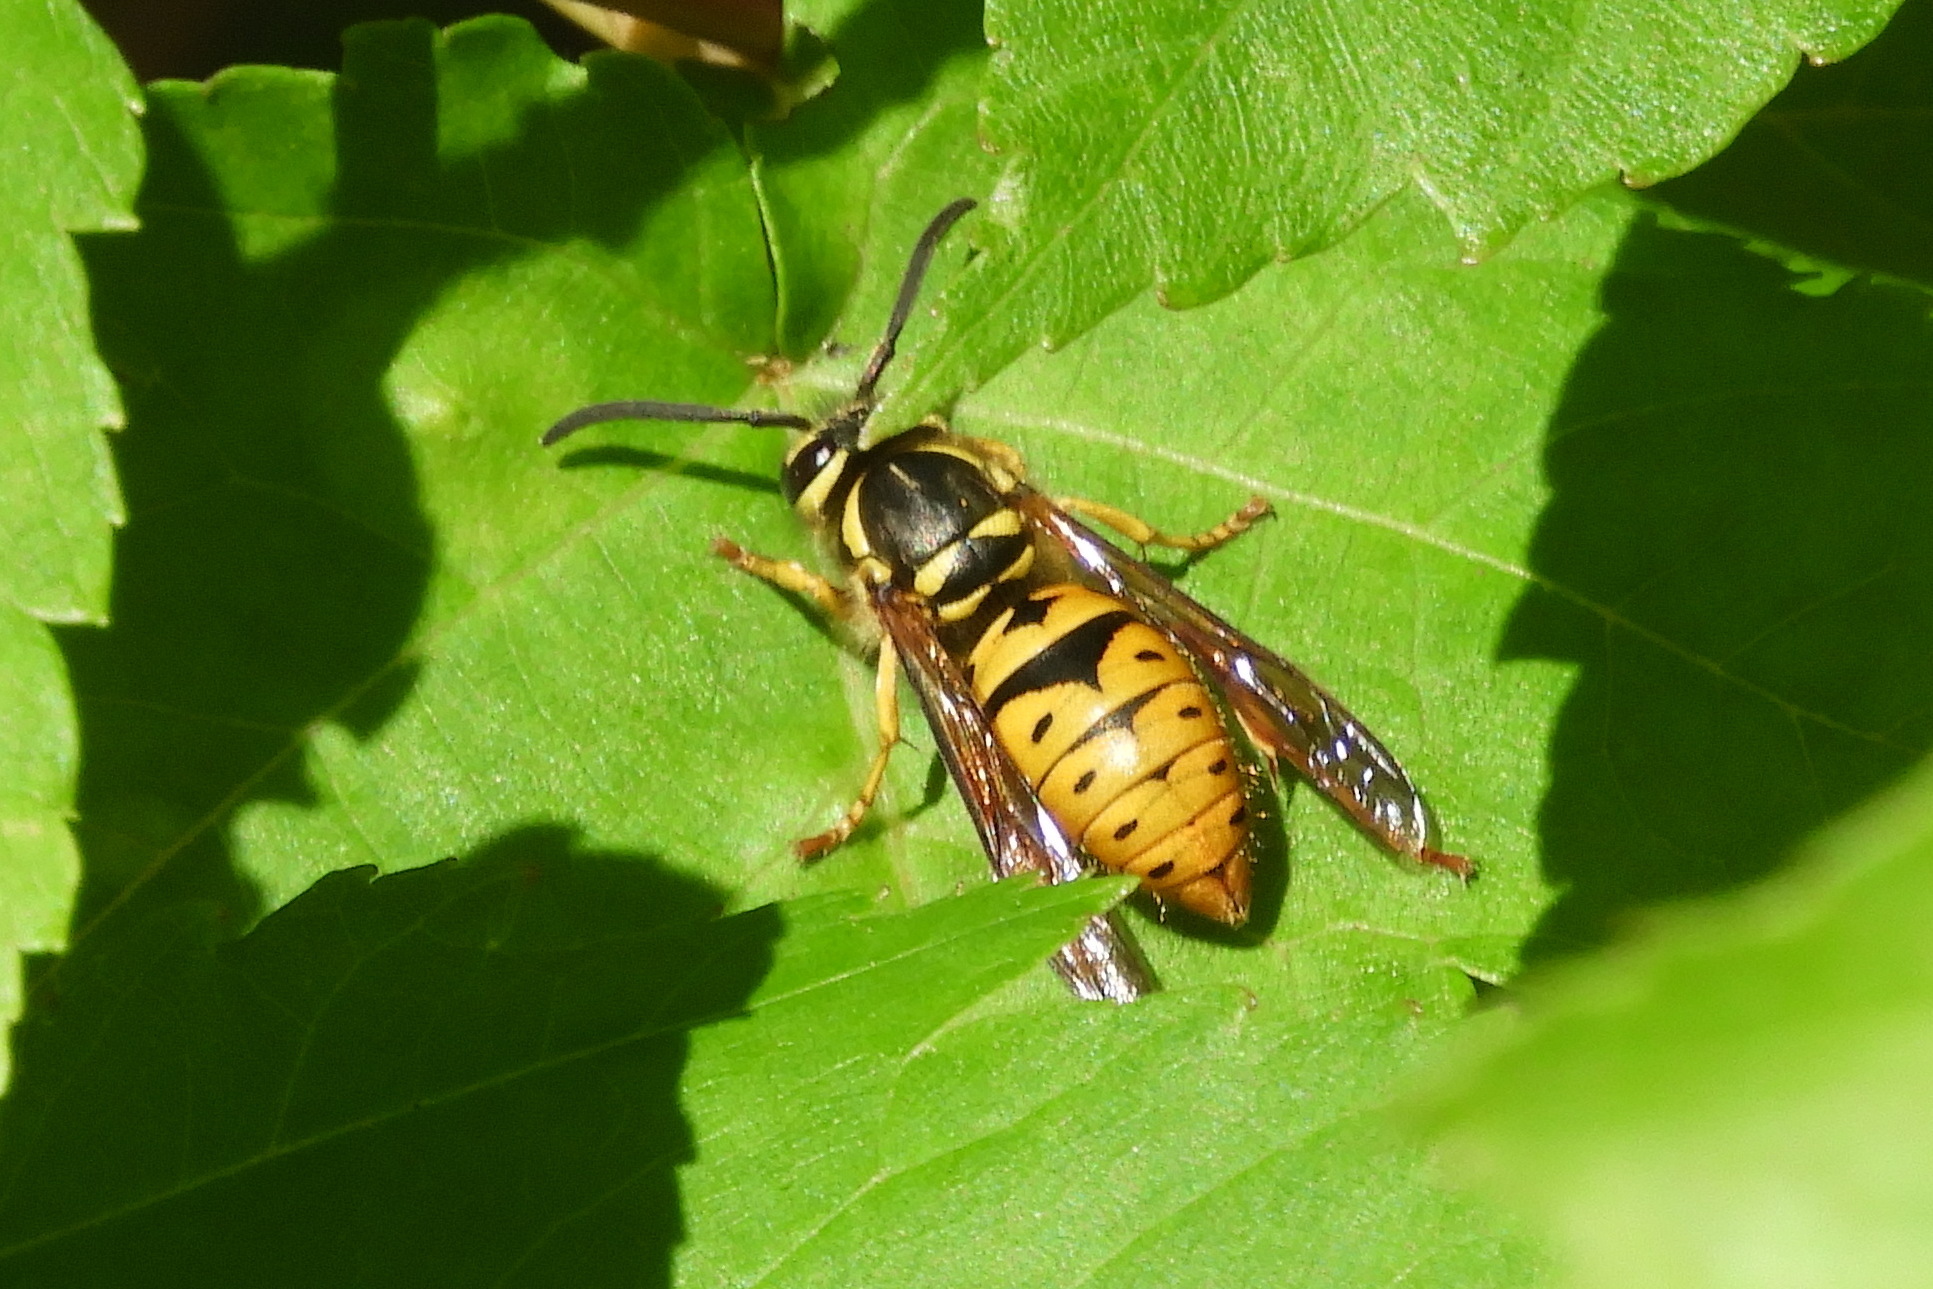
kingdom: Animalia
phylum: Arthropoda
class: Insecta
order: Hymenoptera
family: Vespidae
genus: Vespula
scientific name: Vespula maculifrons
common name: Eastern yellowjacket
